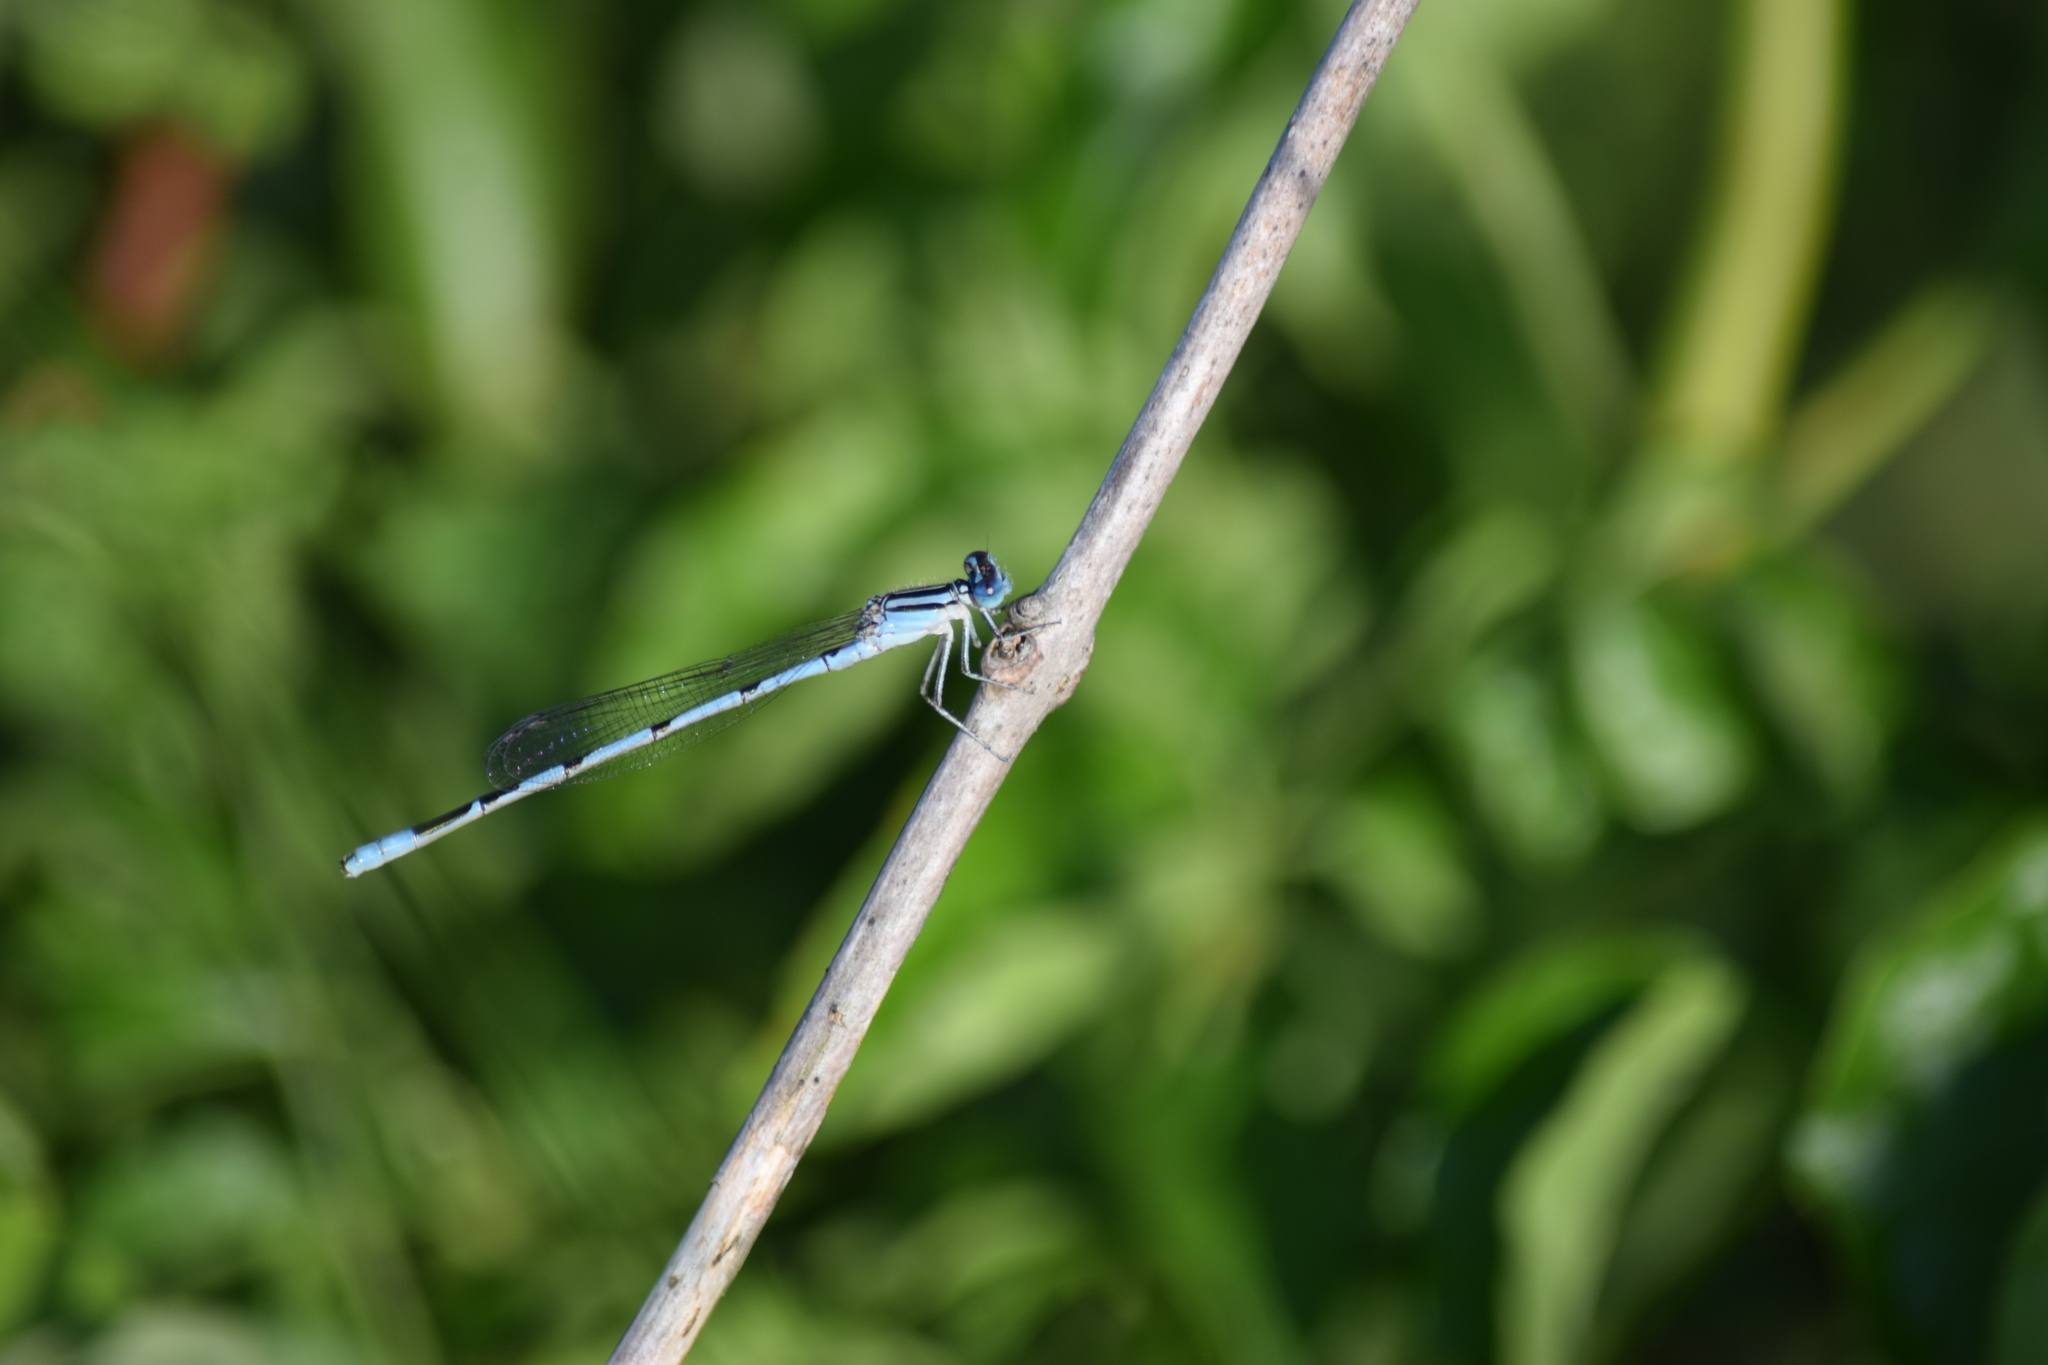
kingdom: Animalia
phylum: Arthropoda
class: Insecta
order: Odonata
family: Coenagrionidae
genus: Enallagma
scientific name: Enallagma durum
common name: Big bluet
